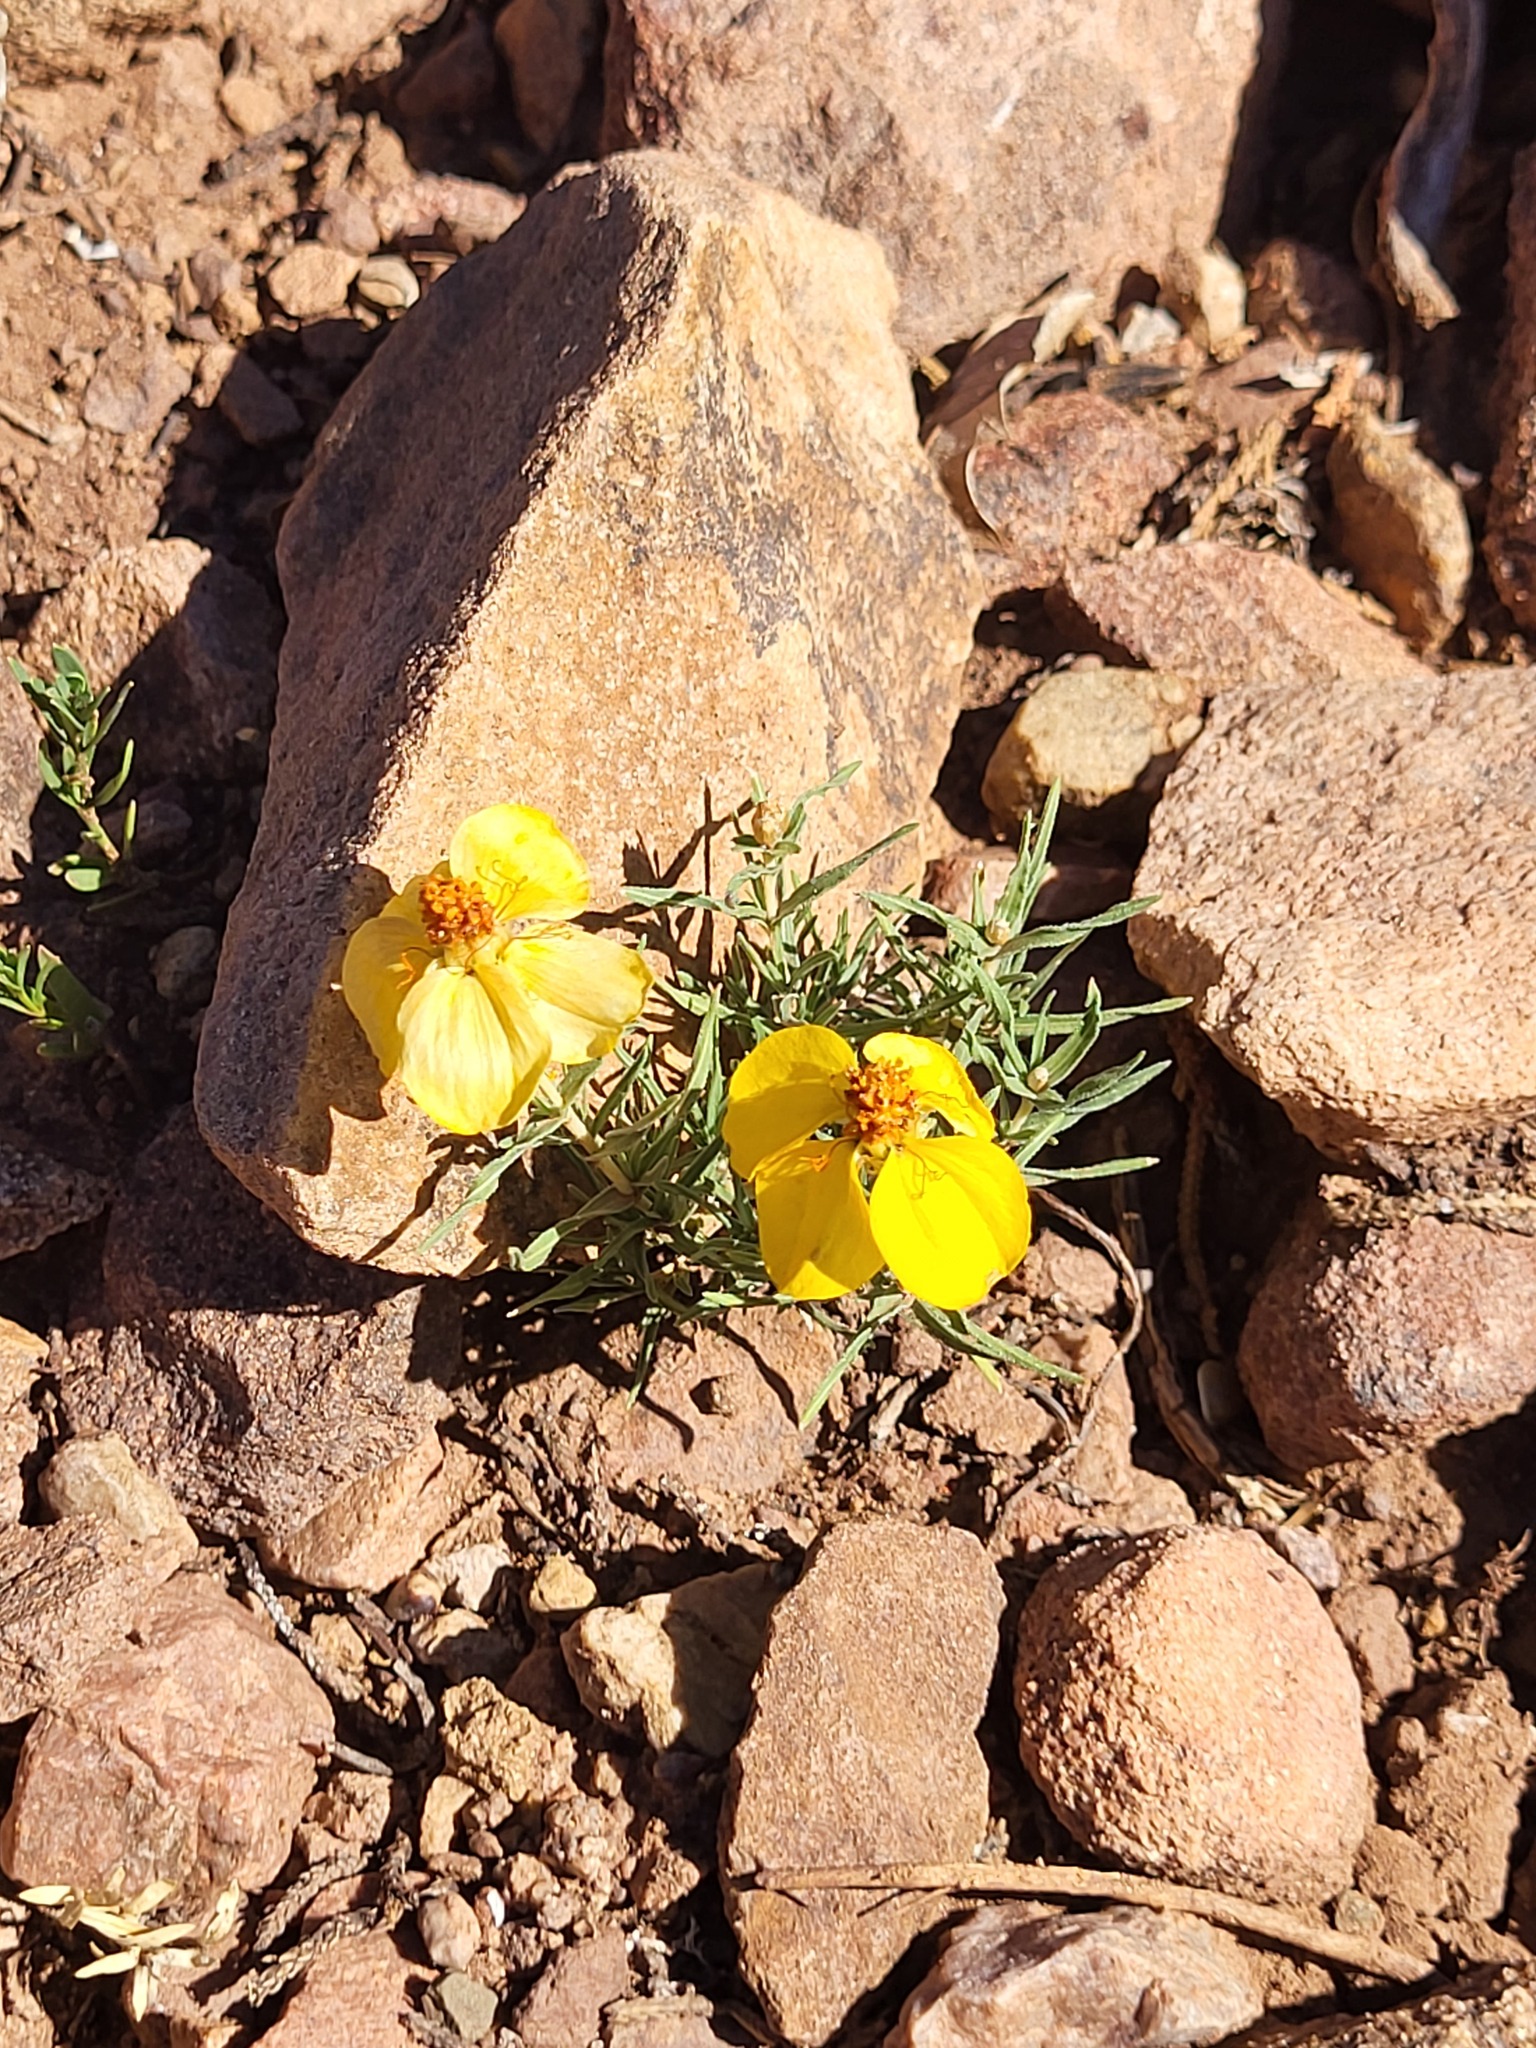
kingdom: Plantae
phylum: Tracheophyta
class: Magnoliopsida
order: Asterales
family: Asteraceae
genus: Zinnia
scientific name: Zinnia grandiflora
